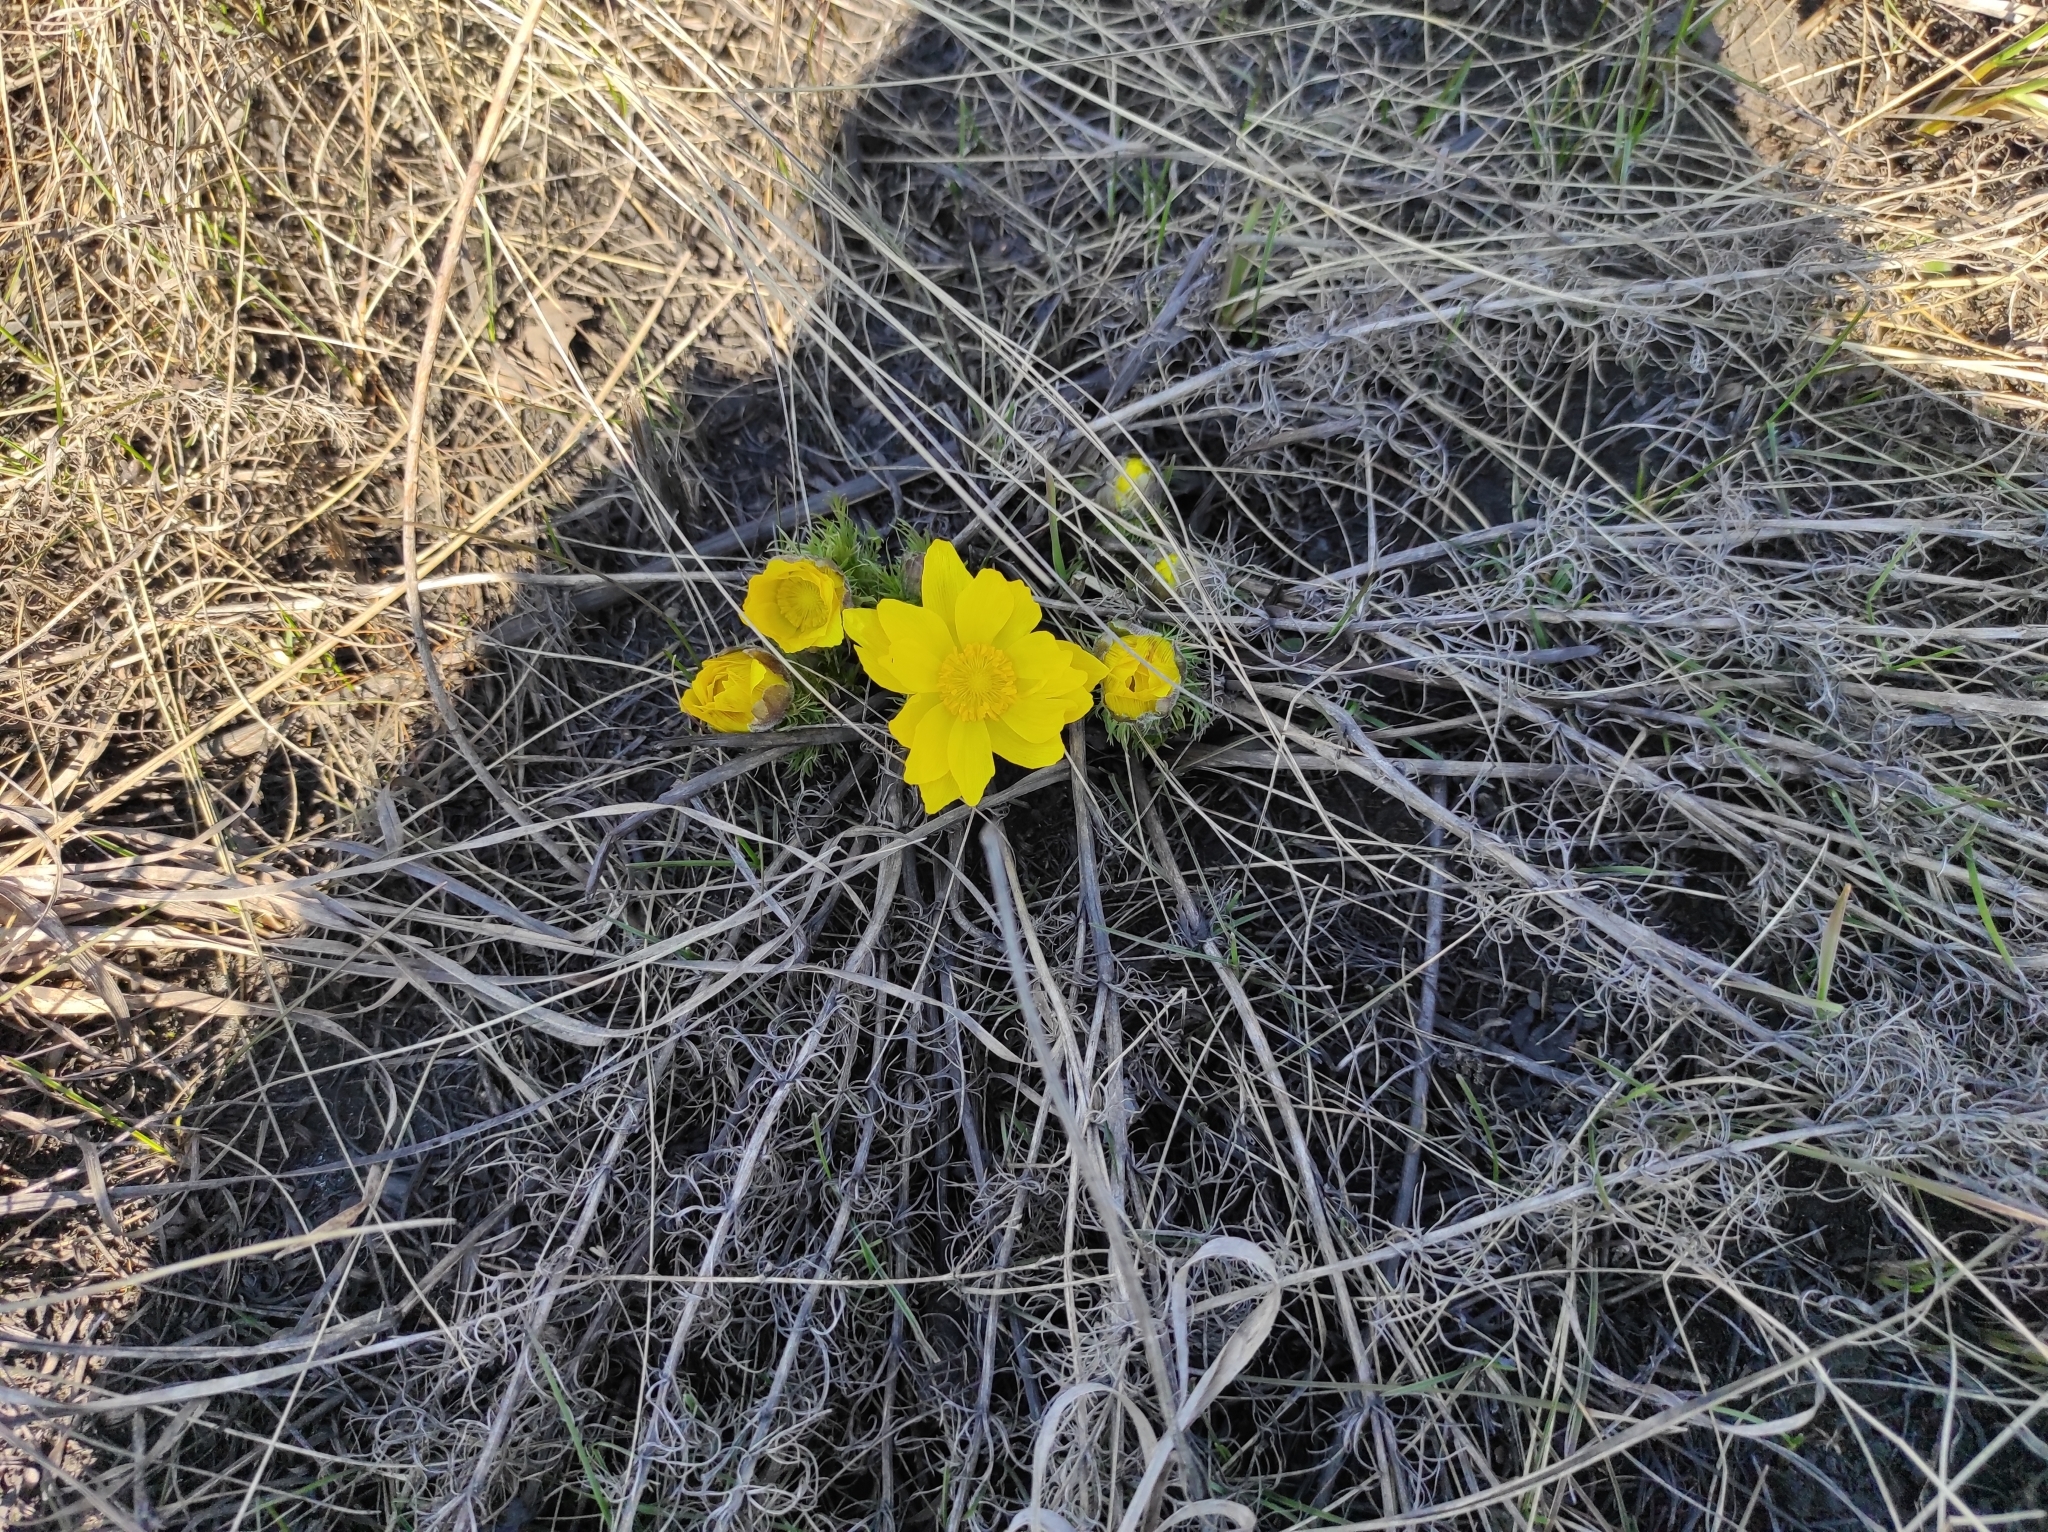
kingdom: Plantae
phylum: Tracheophyta
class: Magnoliopsida
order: Ranunculales
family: Ranunculaceae
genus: Adonis
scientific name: Adonis vernalis
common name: Yellow pheasants-eye
